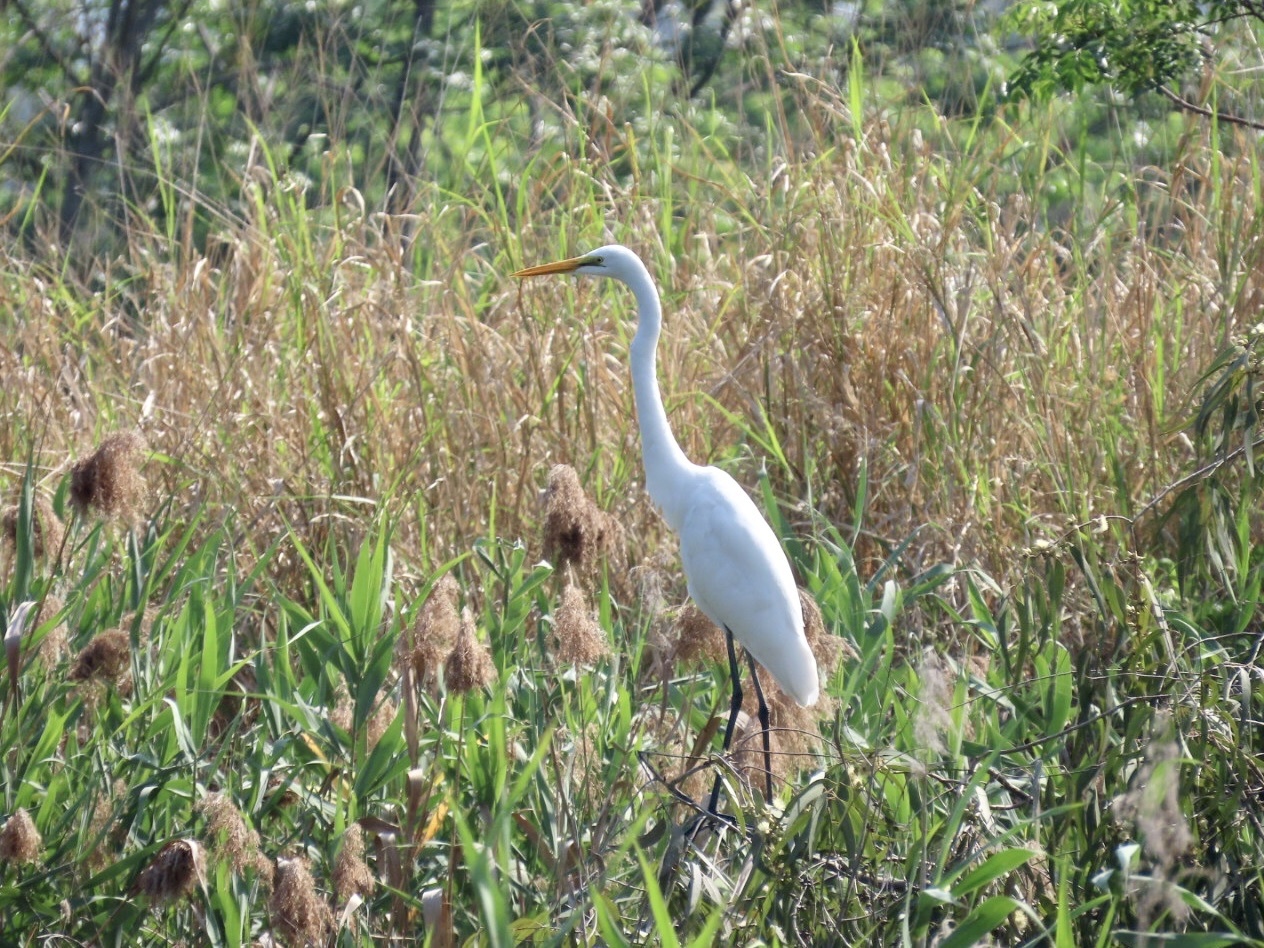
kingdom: Animalia
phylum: Chordata
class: Aves
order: Pelecaniformes
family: Ardeidae
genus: Ardea
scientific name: Ardea alba
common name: Great egret
